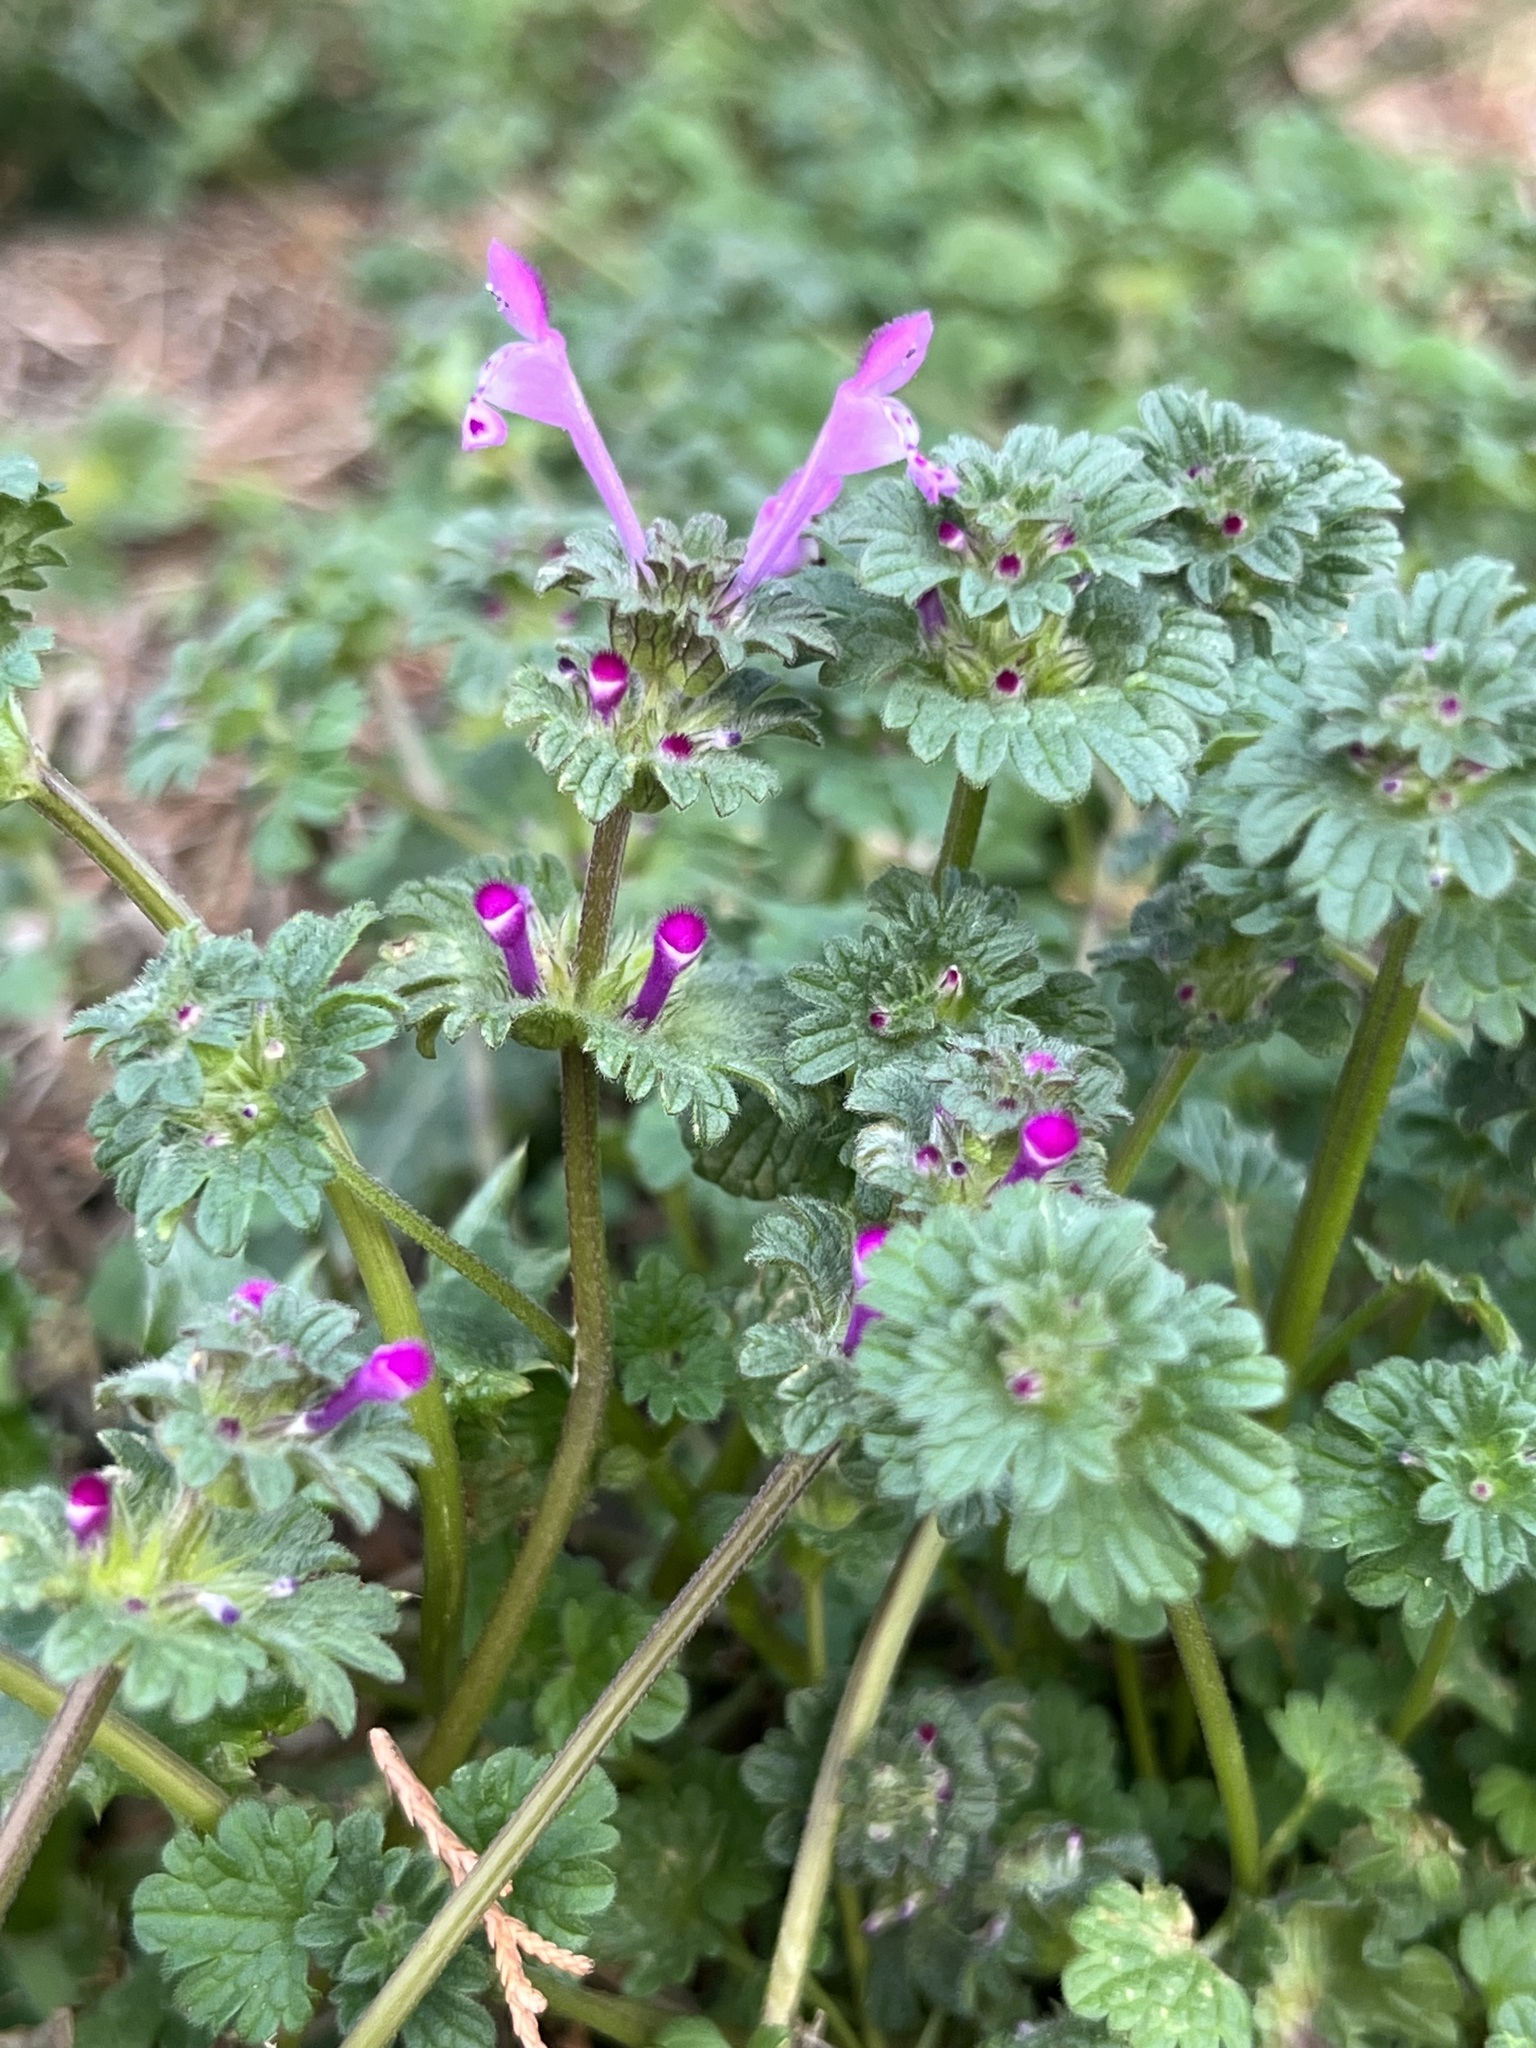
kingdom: Plantae
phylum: Tracheophyta
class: Magnoliopsida
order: Lamiales
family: Lamiaceae
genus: Lamium
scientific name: Lamium amplexicaule
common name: Henbit dead-nettle
